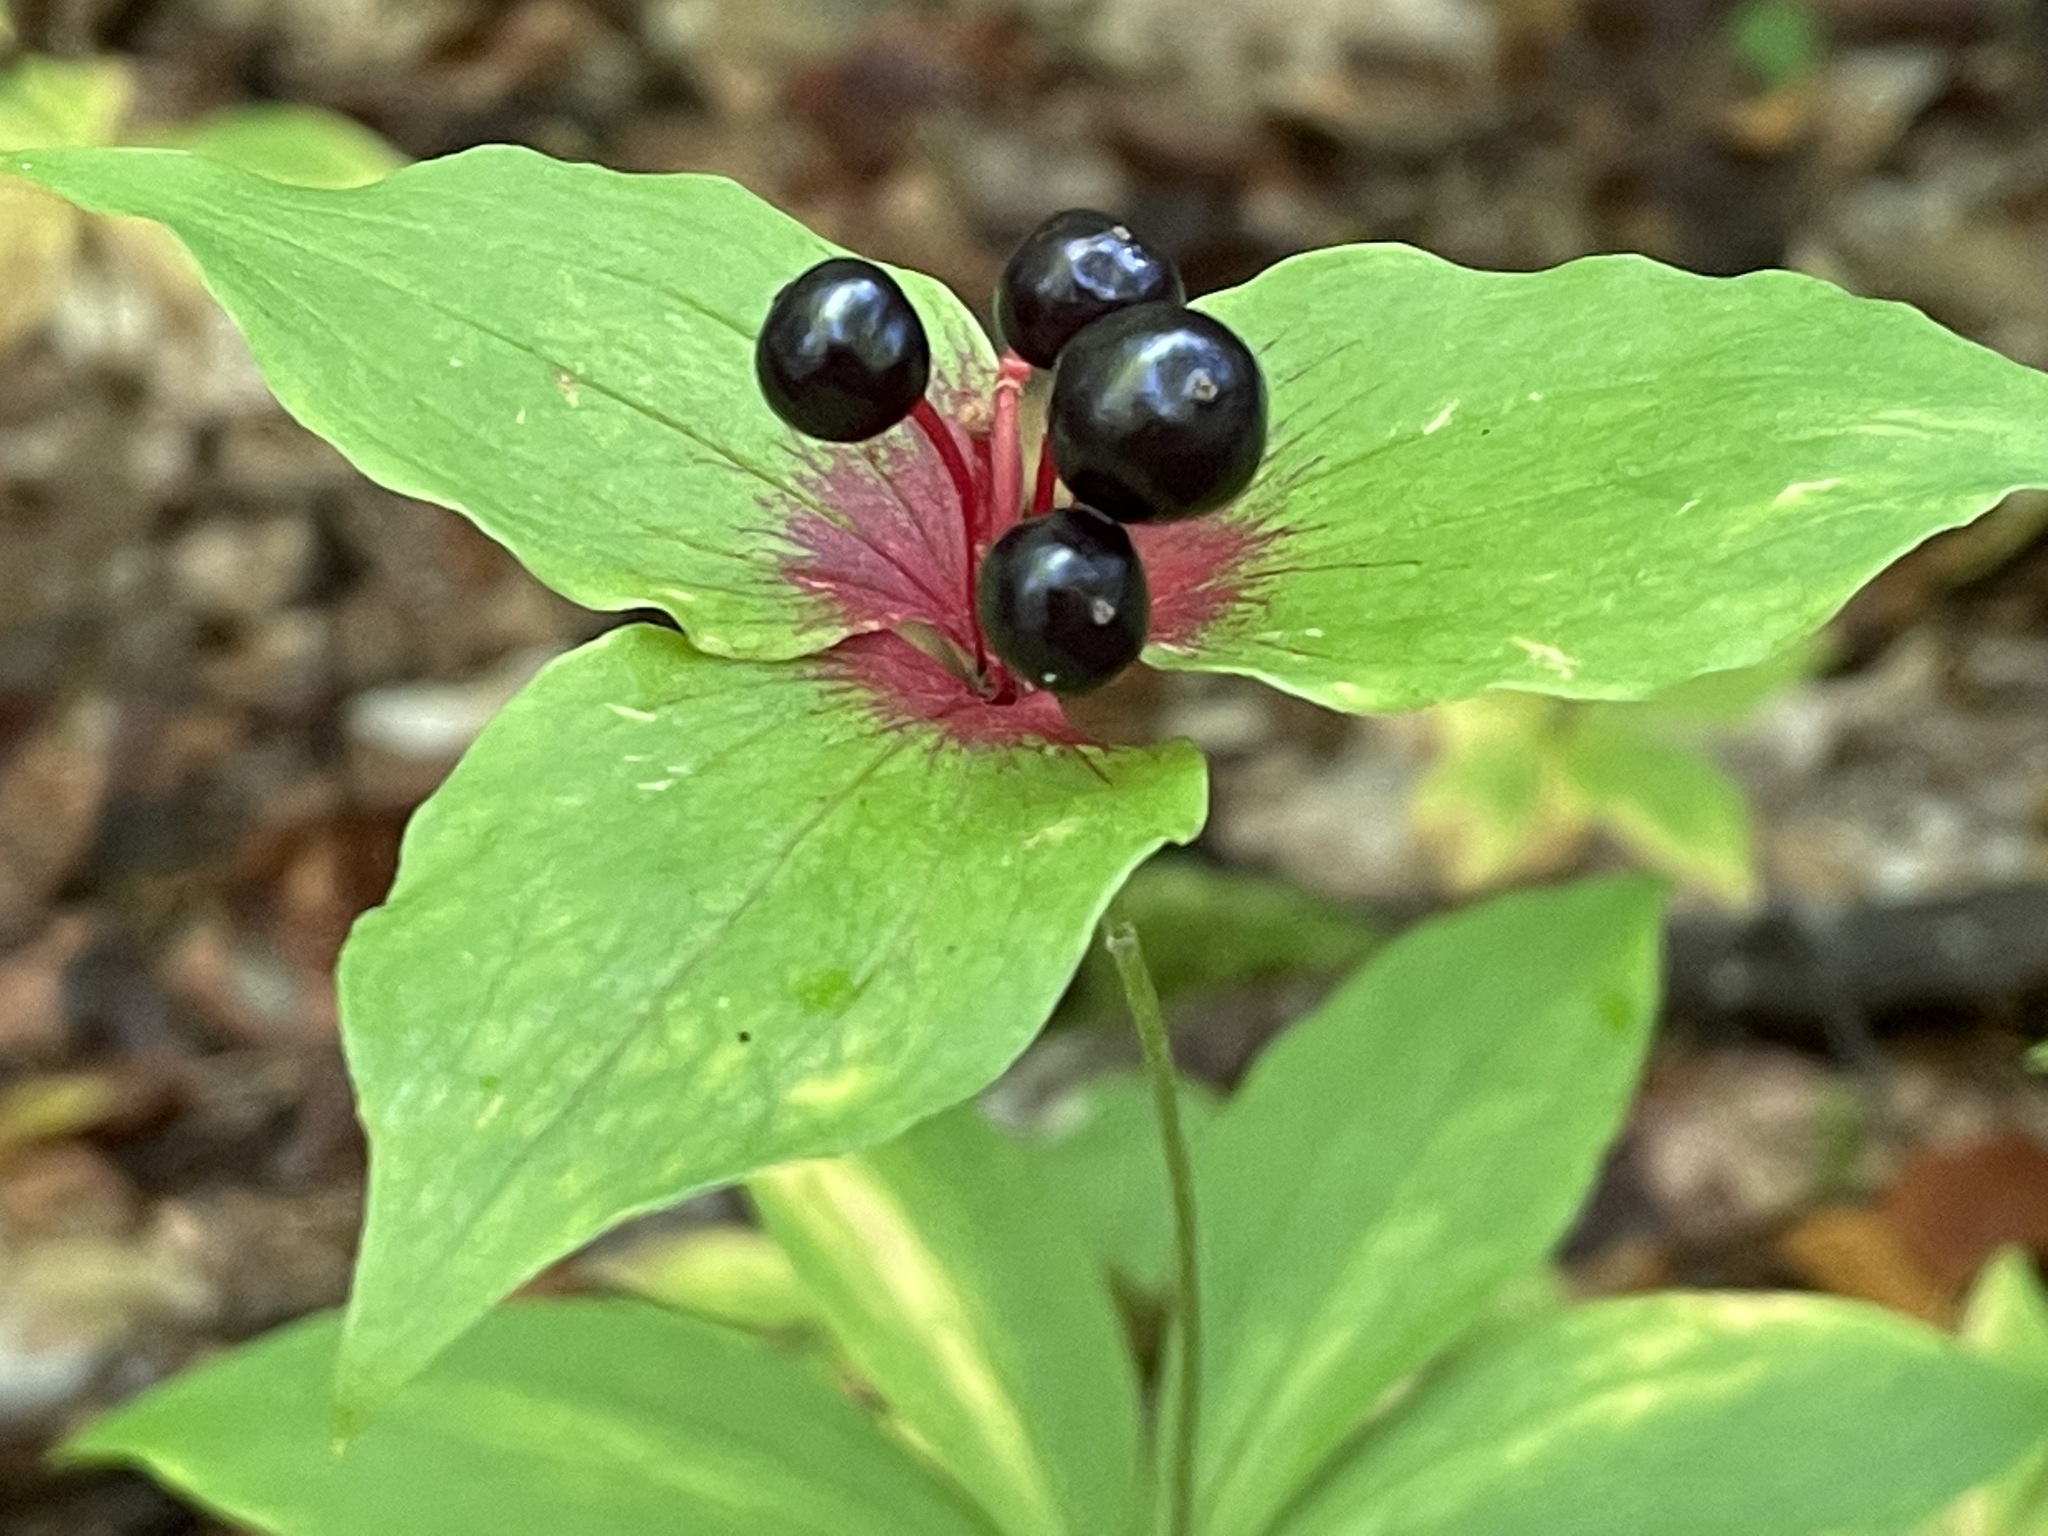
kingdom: Plantae
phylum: Tracheophyta
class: Liliopsida
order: Liliales
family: Liliaceae
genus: Medeola
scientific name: Medeola virginiana
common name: Indian cucumber-root
